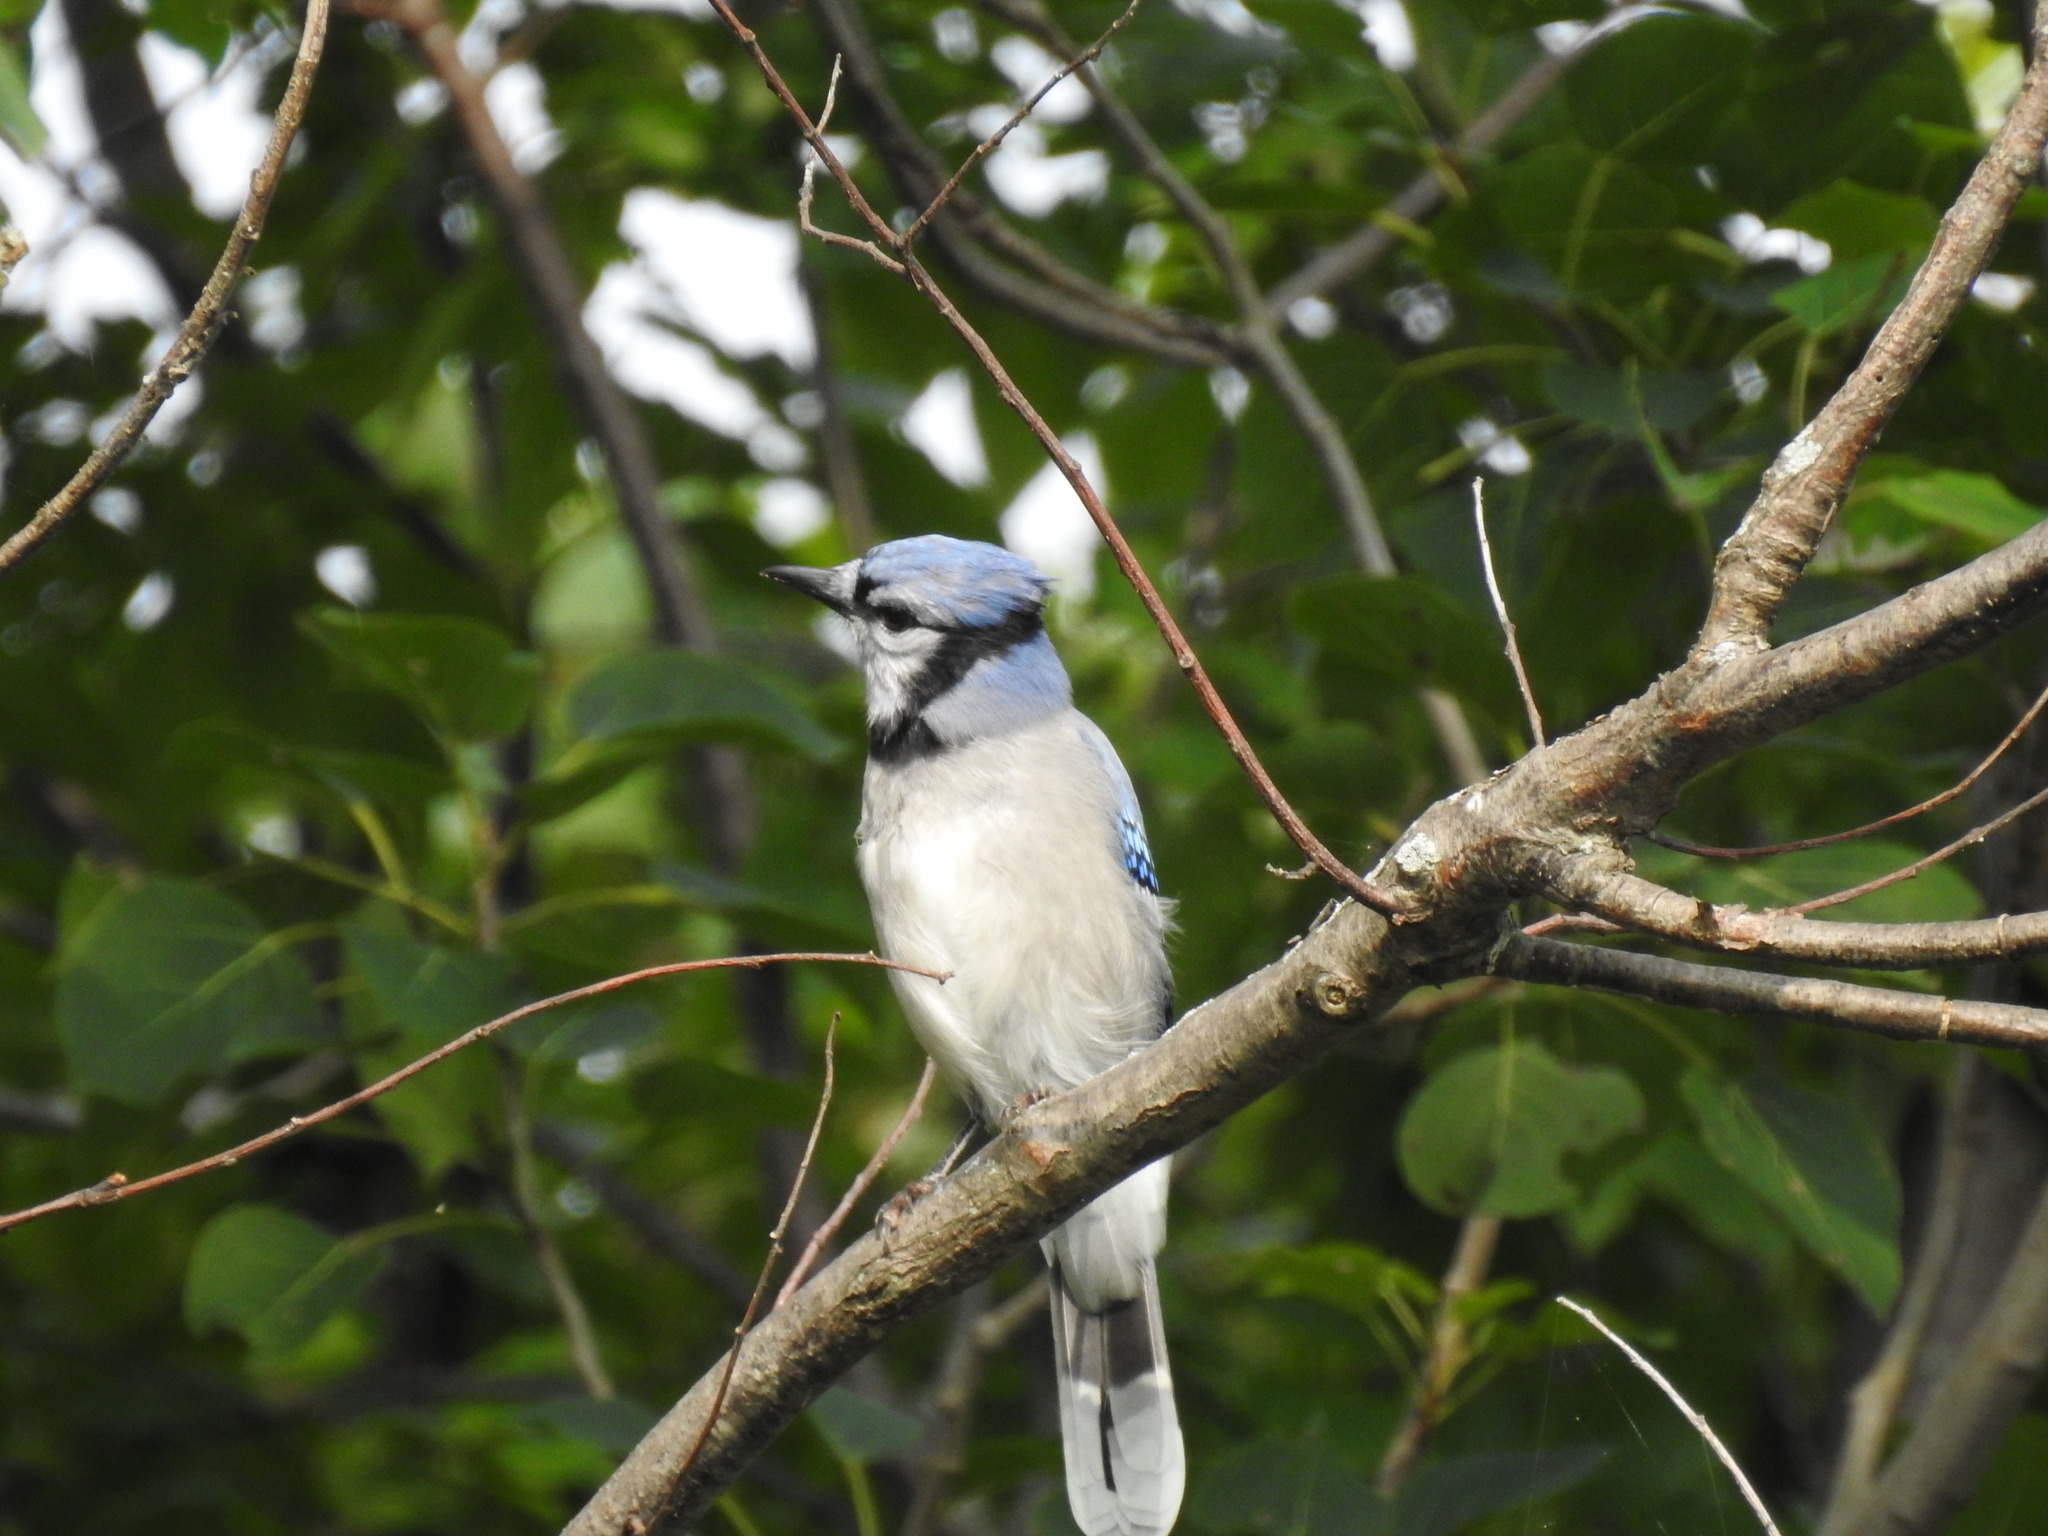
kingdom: Animalia
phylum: Chordata
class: Aves
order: Passeriformes
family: Corvidae
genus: Cyanocitta
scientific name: Cyanocitta cristata
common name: Blue jay
